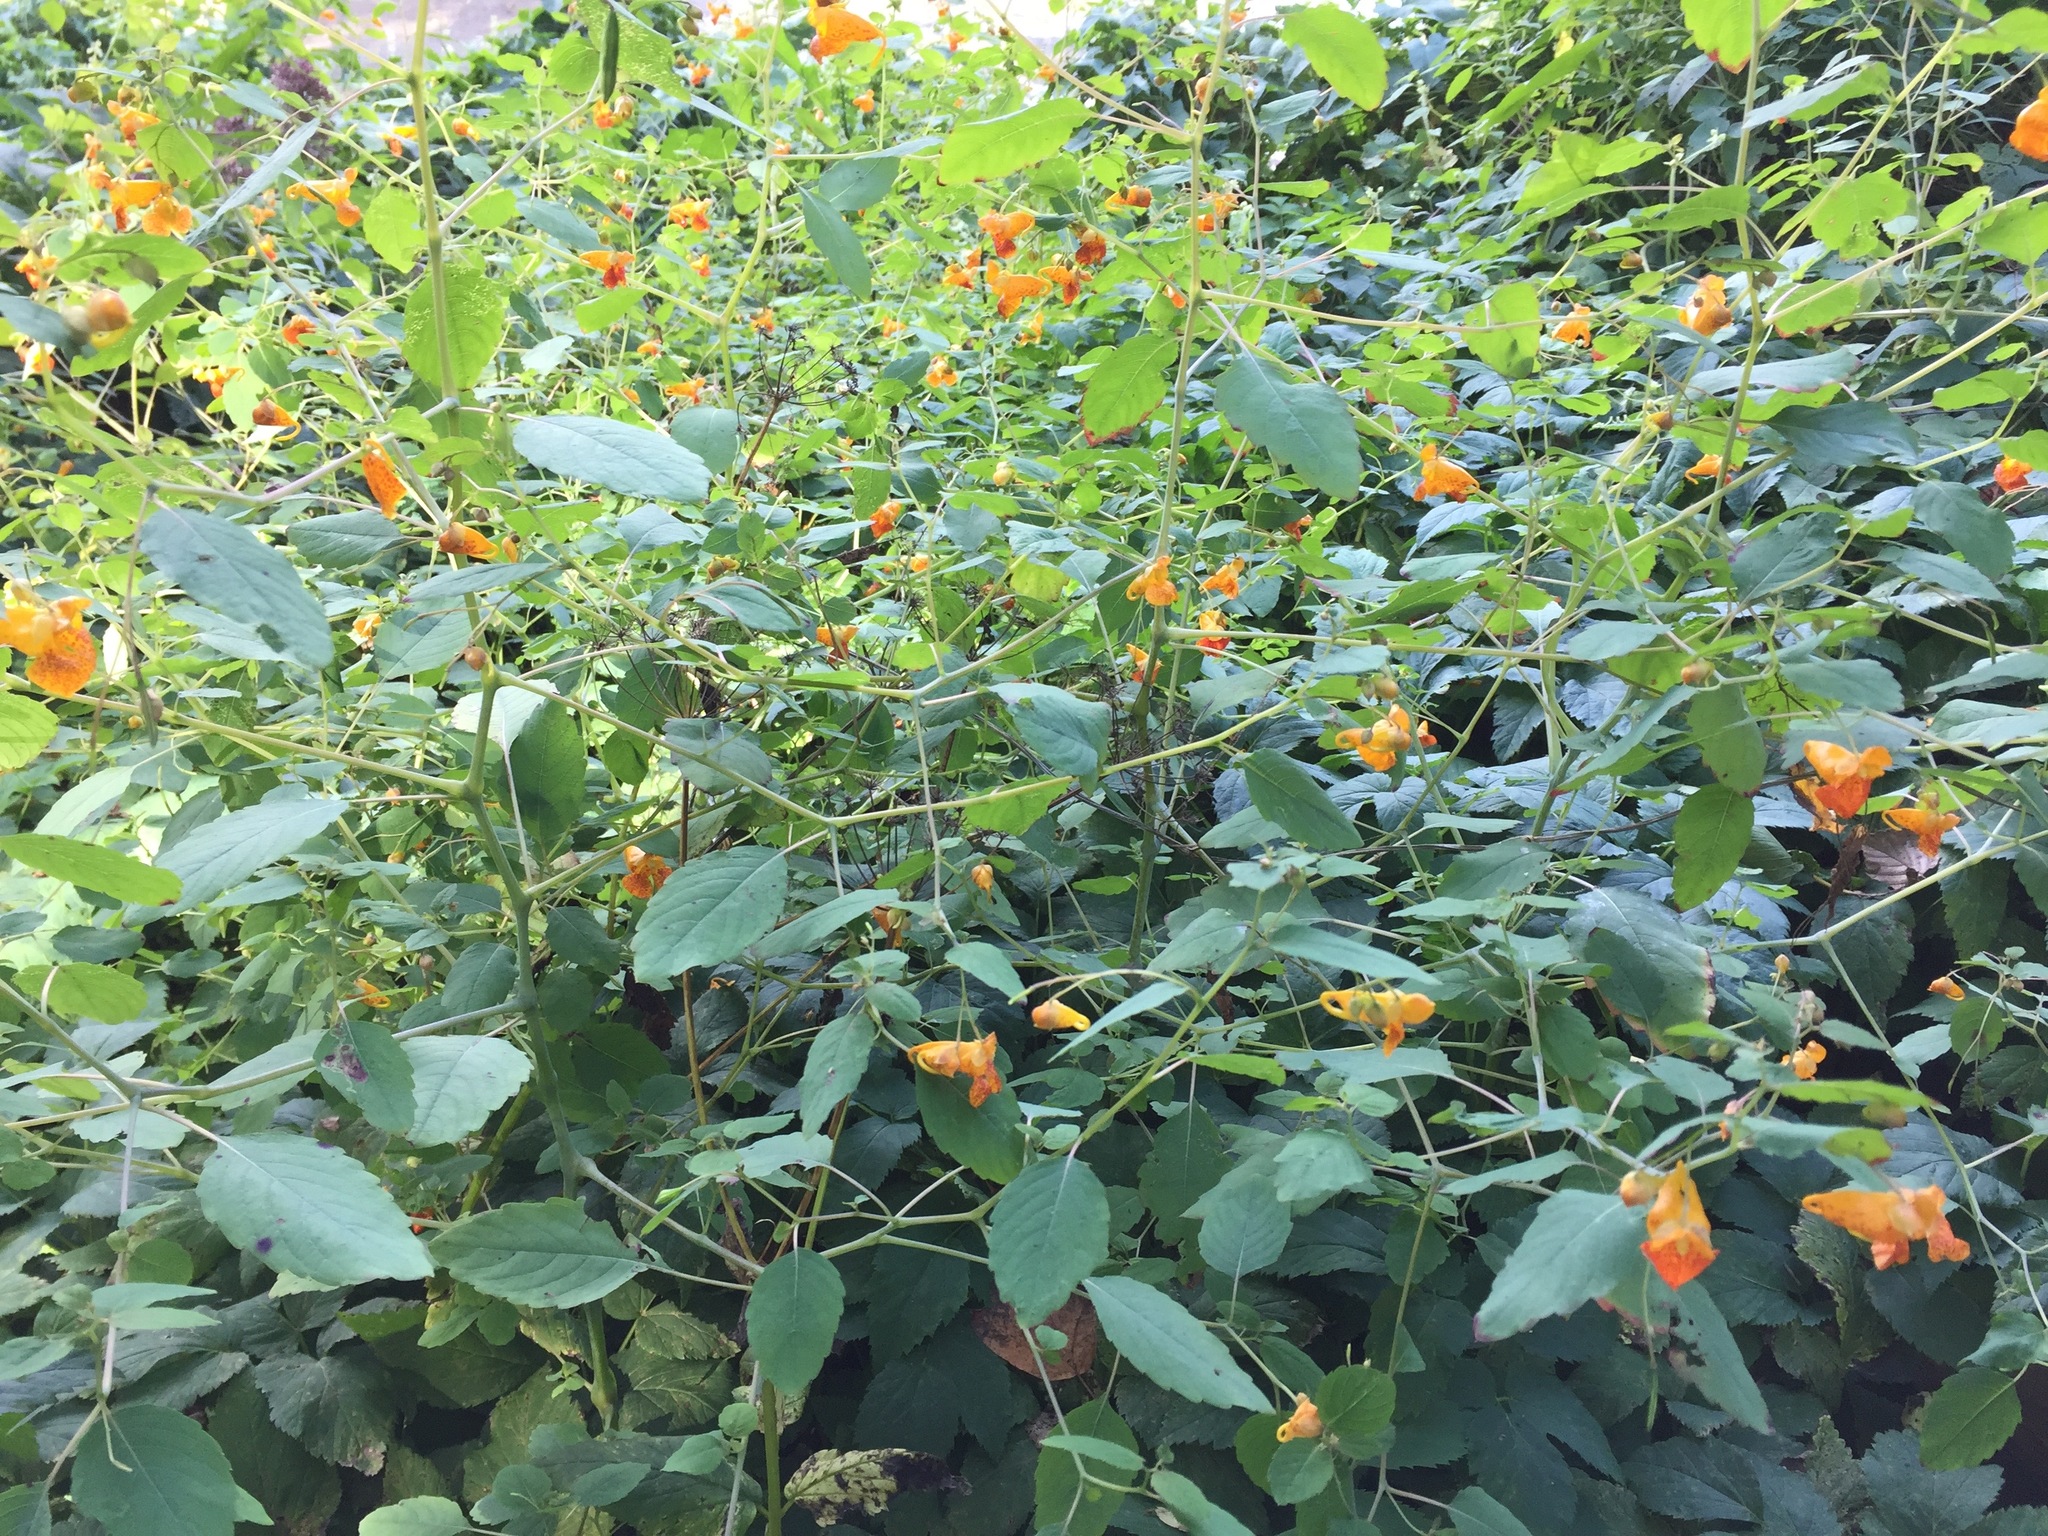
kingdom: Plantae
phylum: Tracheophyta
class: Magnoliopsida
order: Ericales
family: Balsaminaceae
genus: Impatiens
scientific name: Impatiens capensis
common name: Orange balsam
